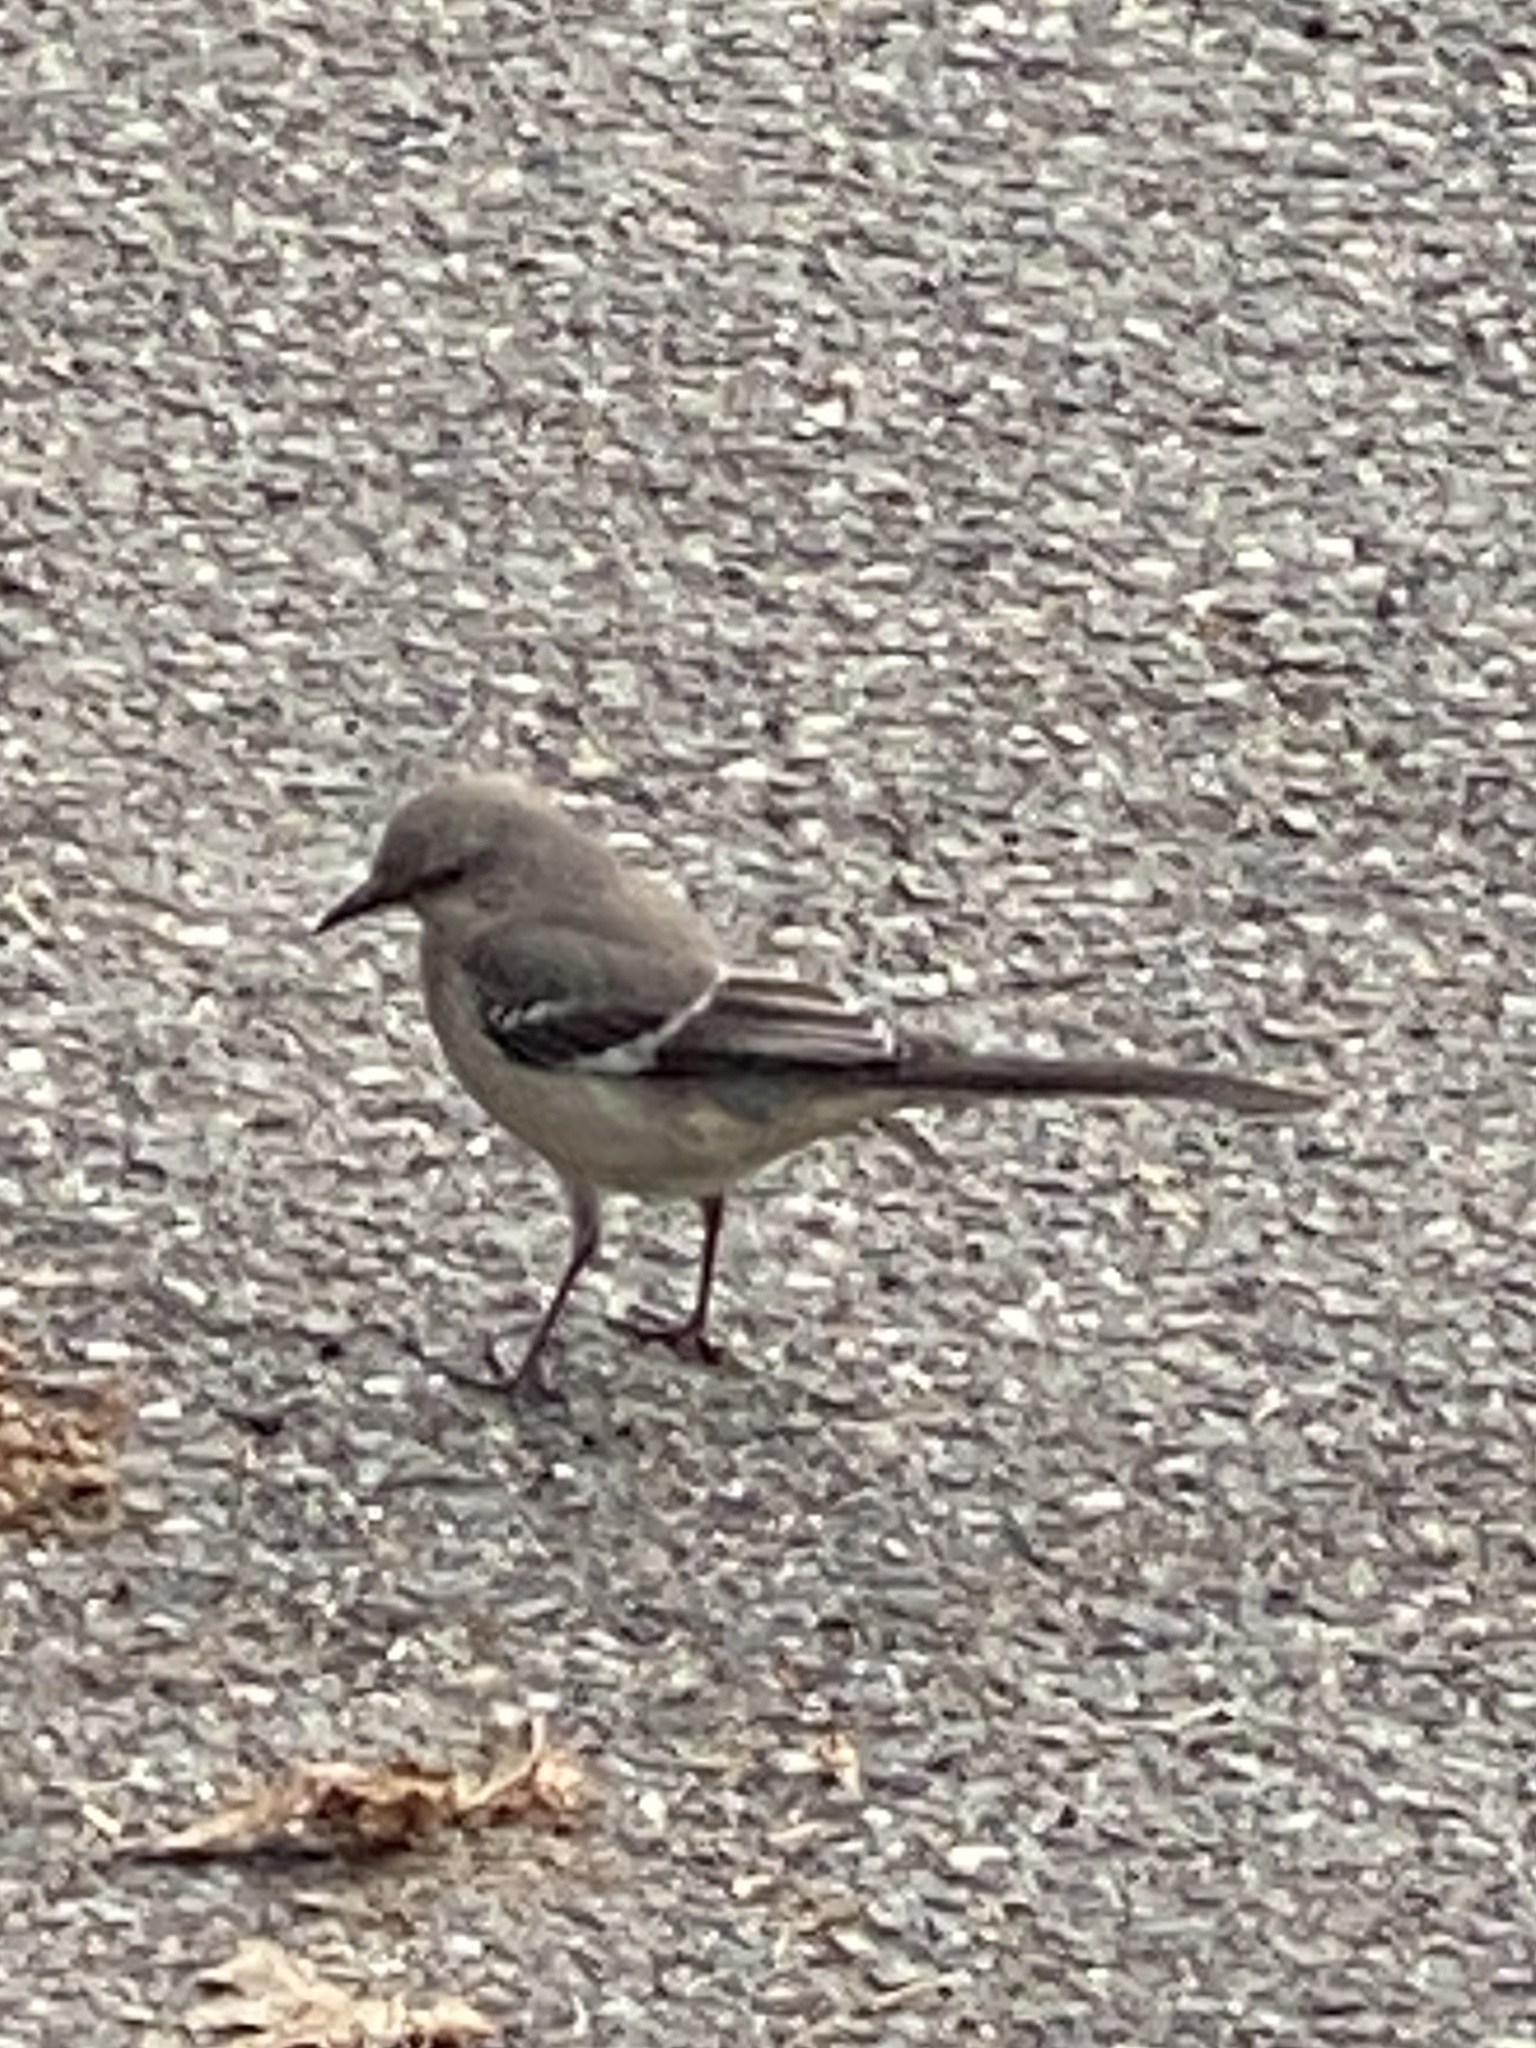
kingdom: Animalia
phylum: Chordata
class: Aves
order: Passeriformes
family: Mimidae
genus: Mimus
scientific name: Mimus polyglottos
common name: Northern mockingbird
